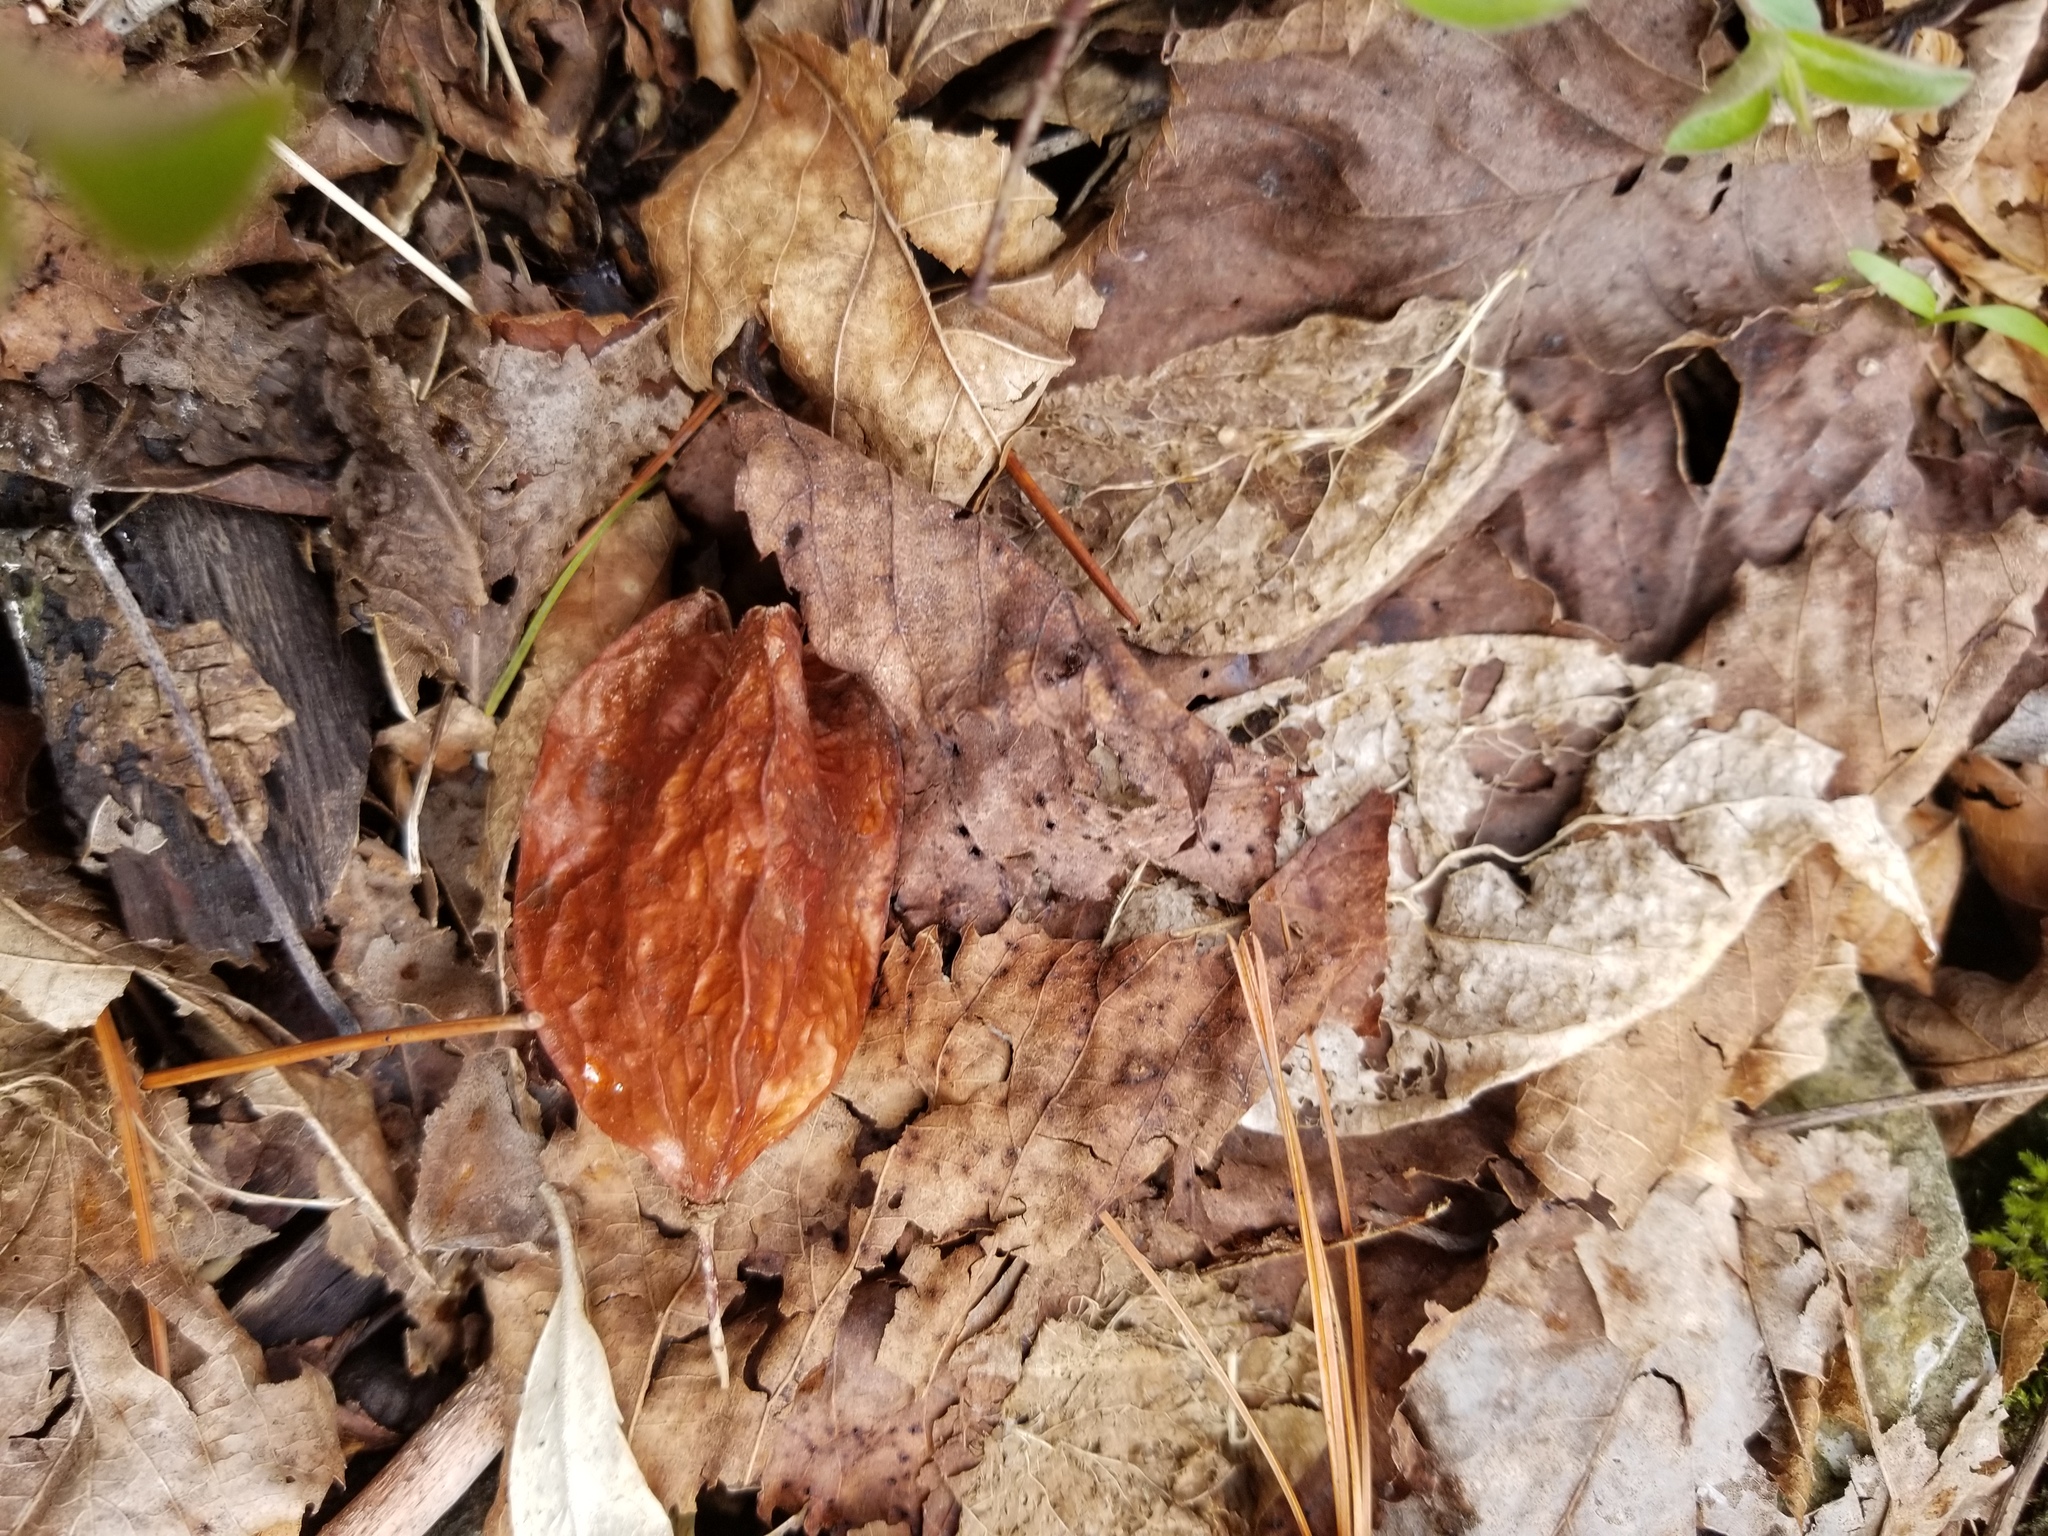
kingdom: Plantae
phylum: Tracheophyta
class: Magnoliopsida
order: Crossosomatales
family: Staphyleaceae
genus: Staphylea
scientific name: Staphylea trifolia
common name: American bladdernut
